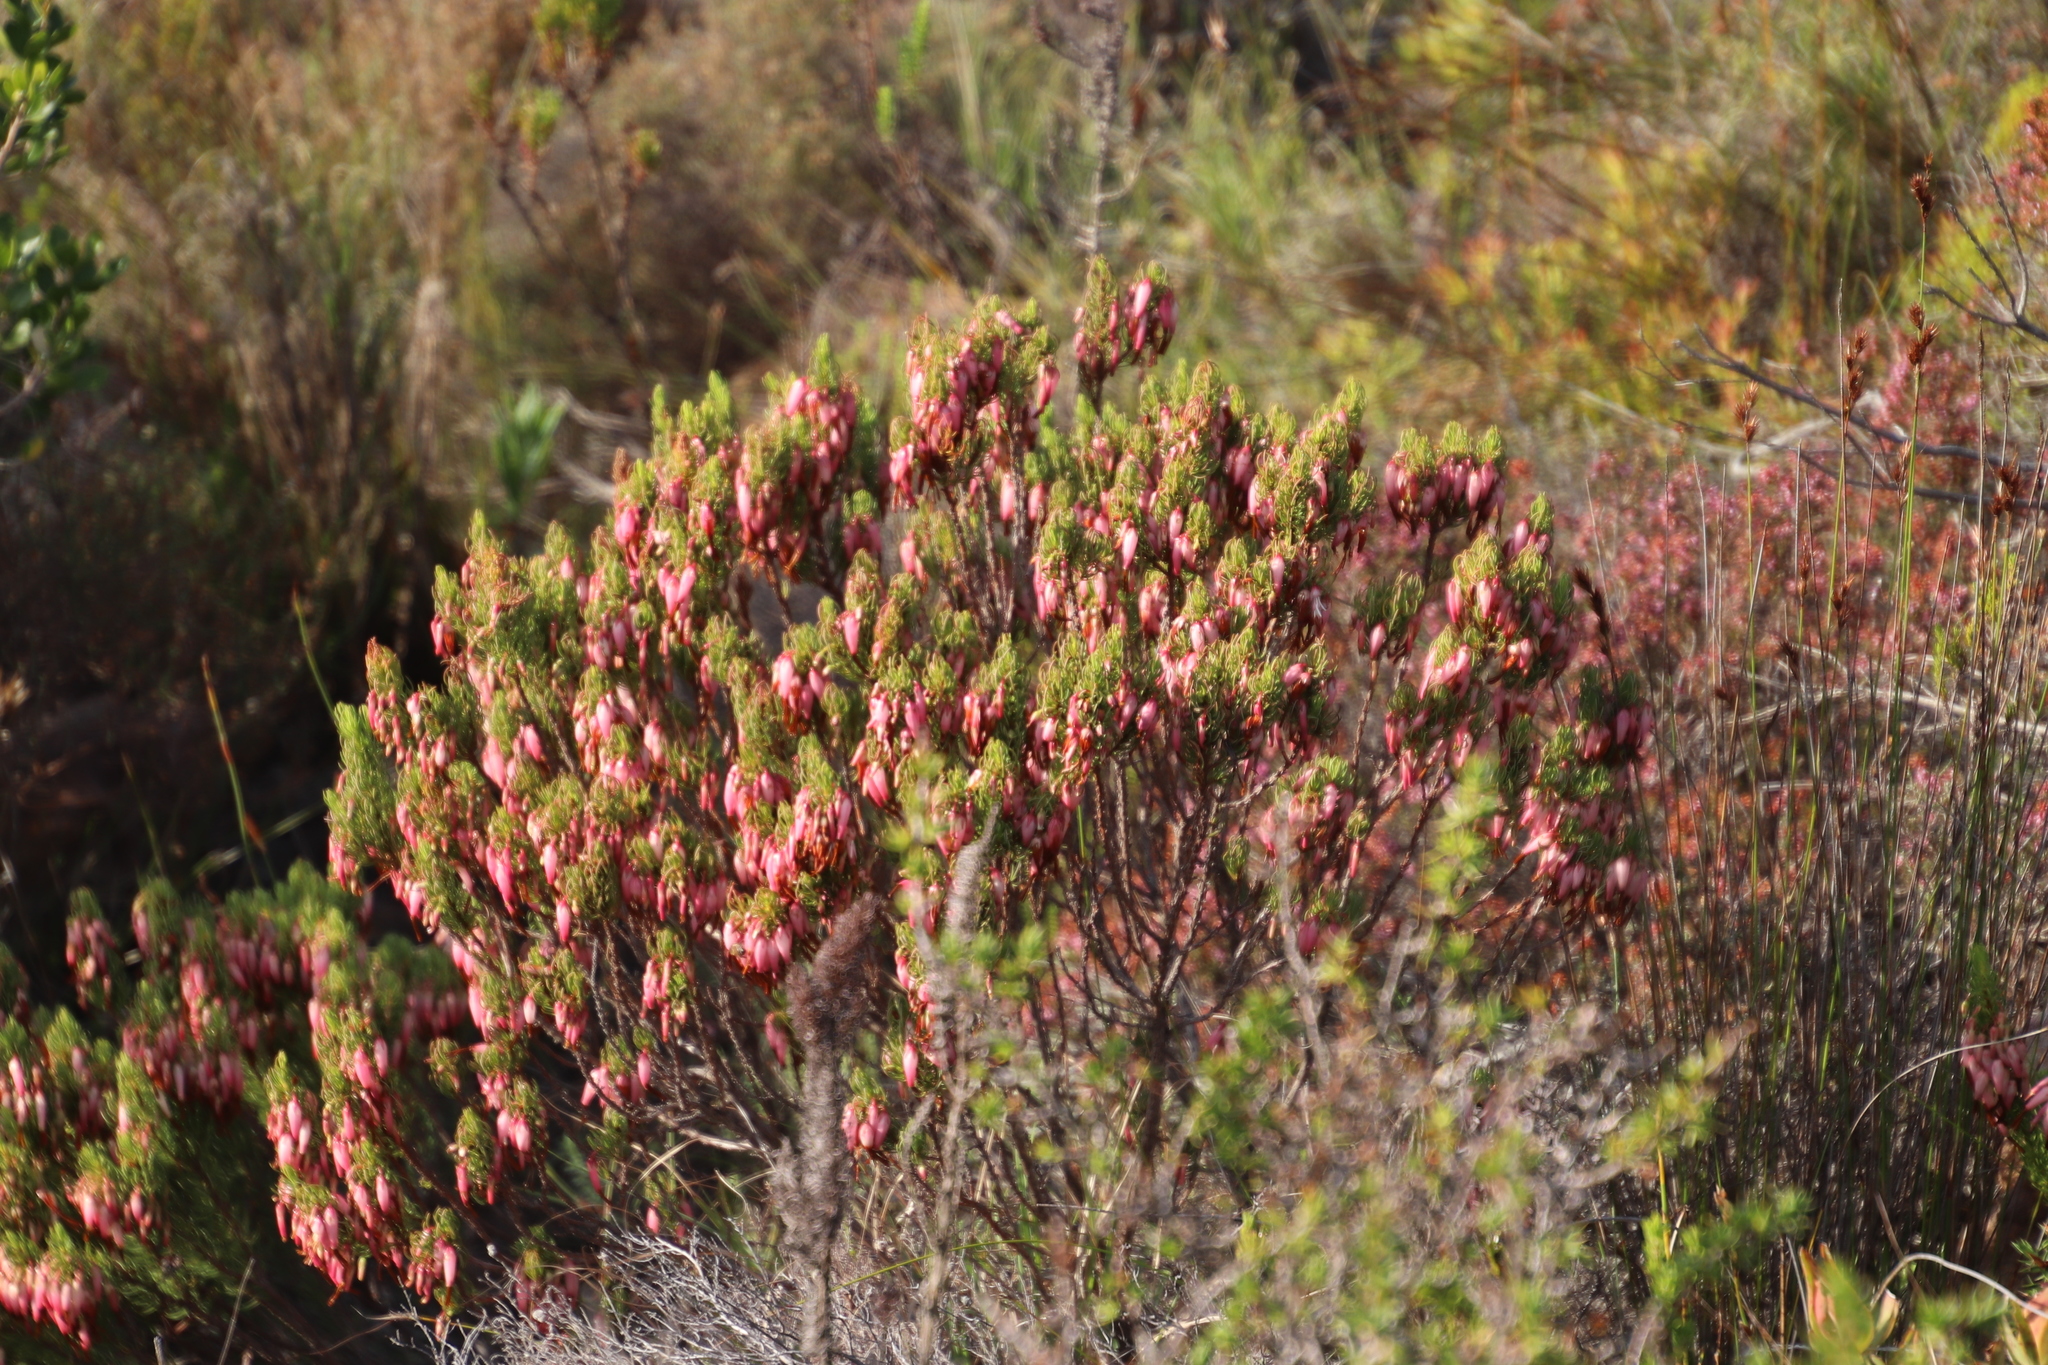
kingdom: Plantae
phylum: Tracheophyta
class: Magnoliopsida
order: Ericales
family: Ericaceae
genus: Erica
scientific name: Erica plukenetii
